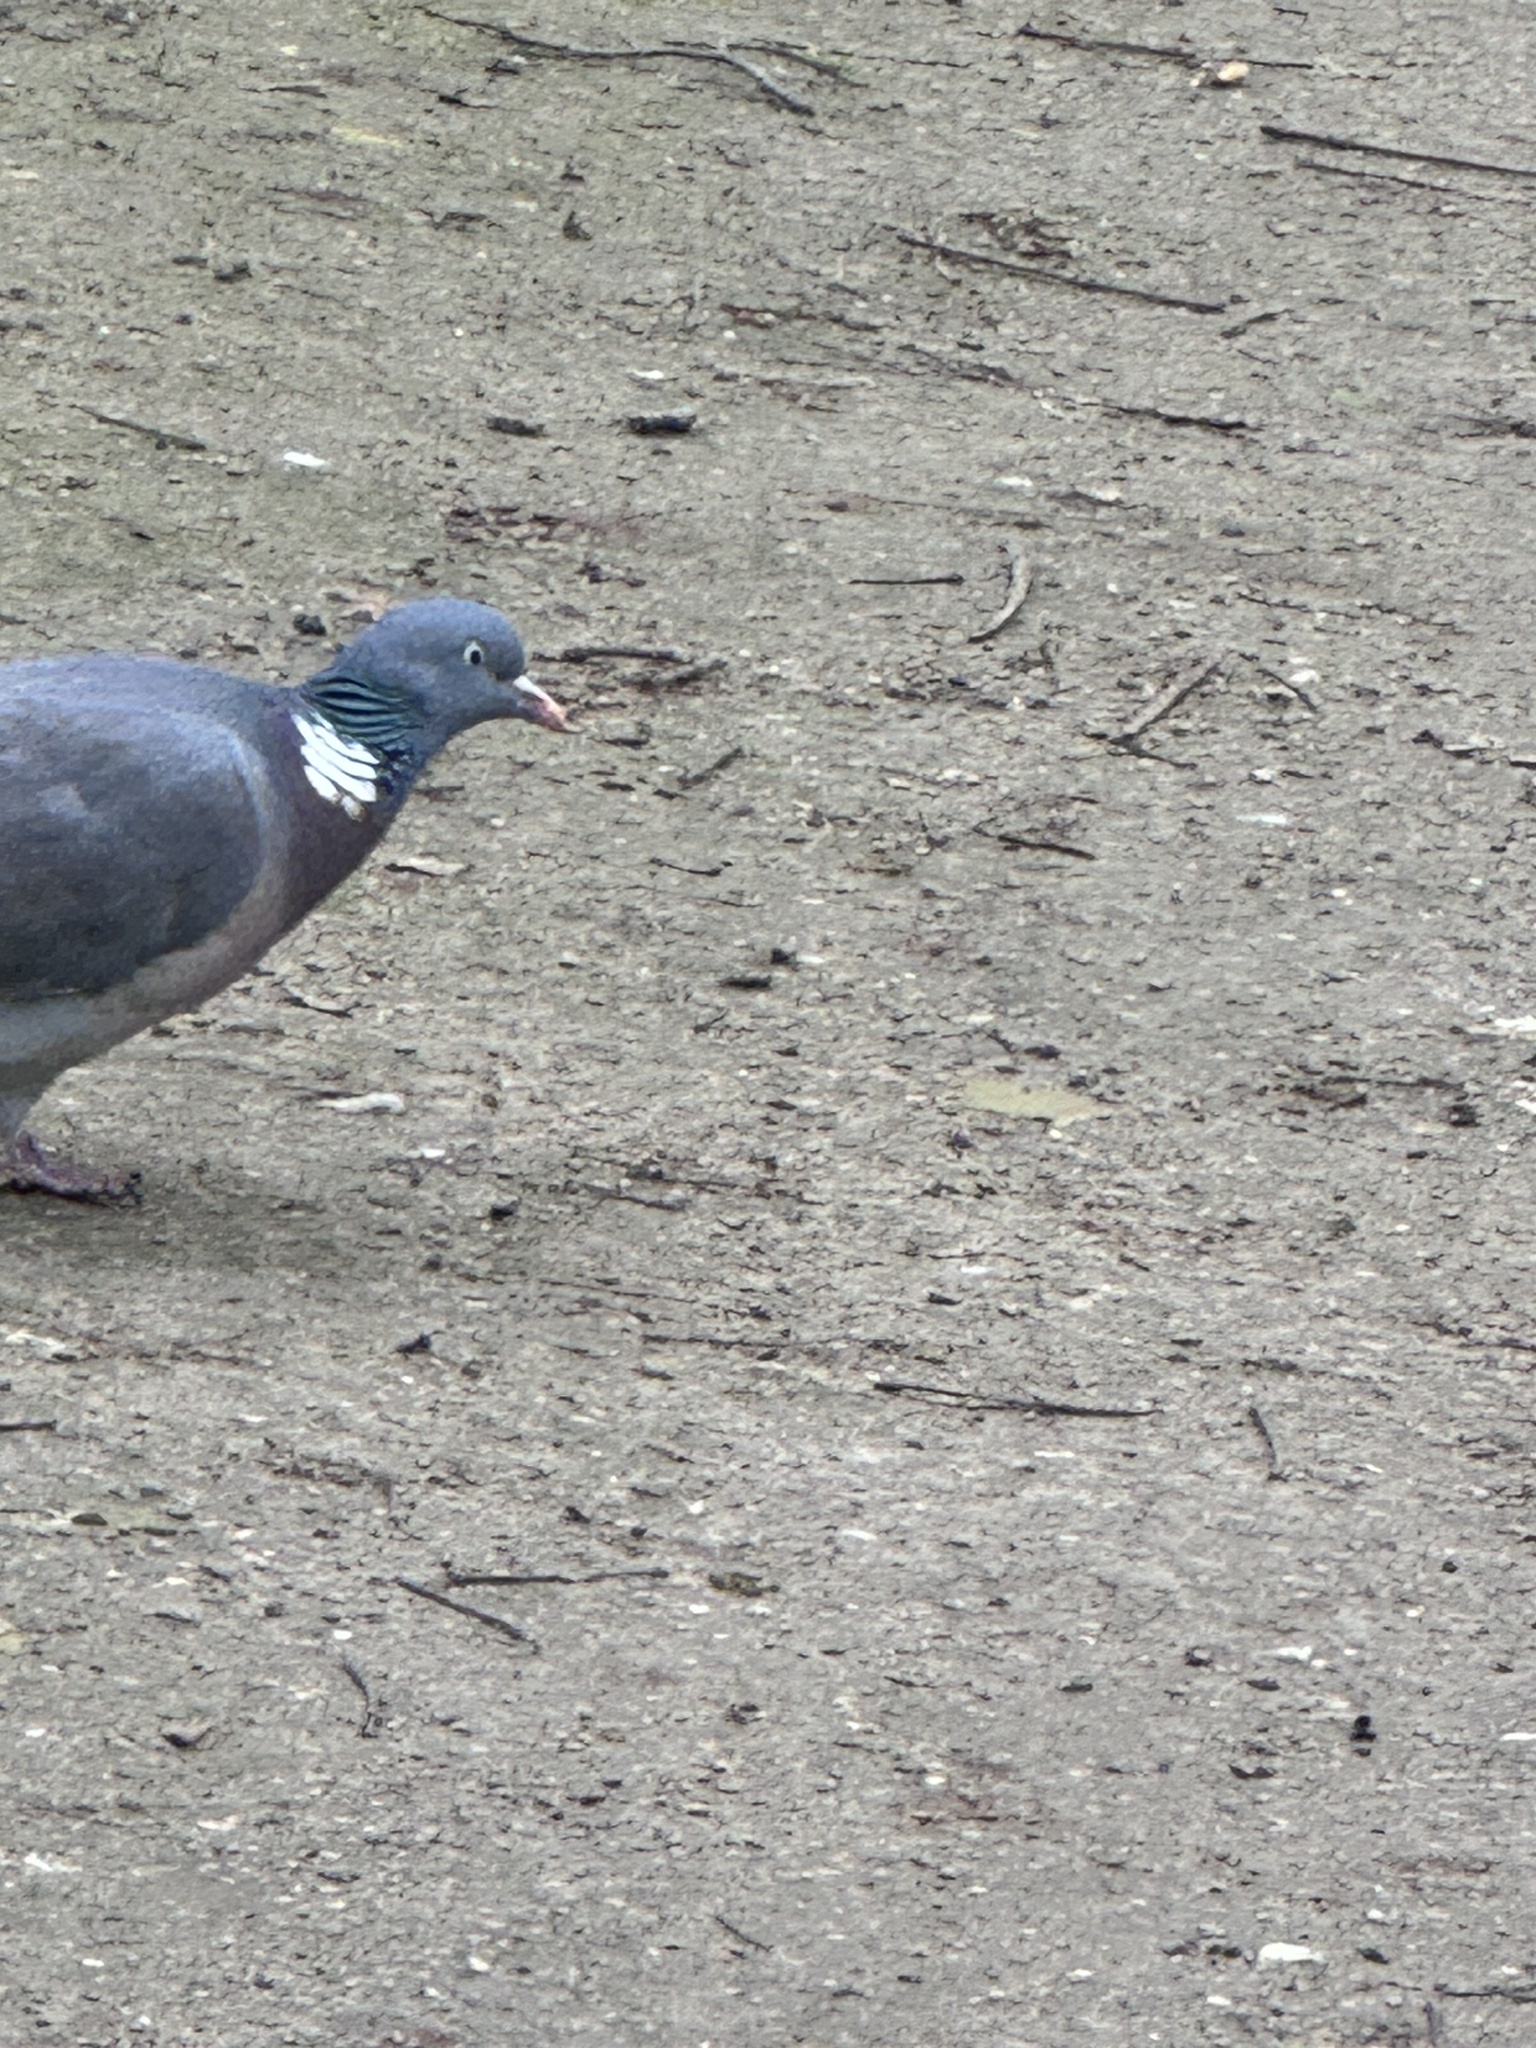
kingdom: Animalia
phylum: Chordata
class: Aves
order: Columbiformes
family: Columbidae
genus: Columba
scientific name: Columba palumbus
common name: Common wood pigeon
